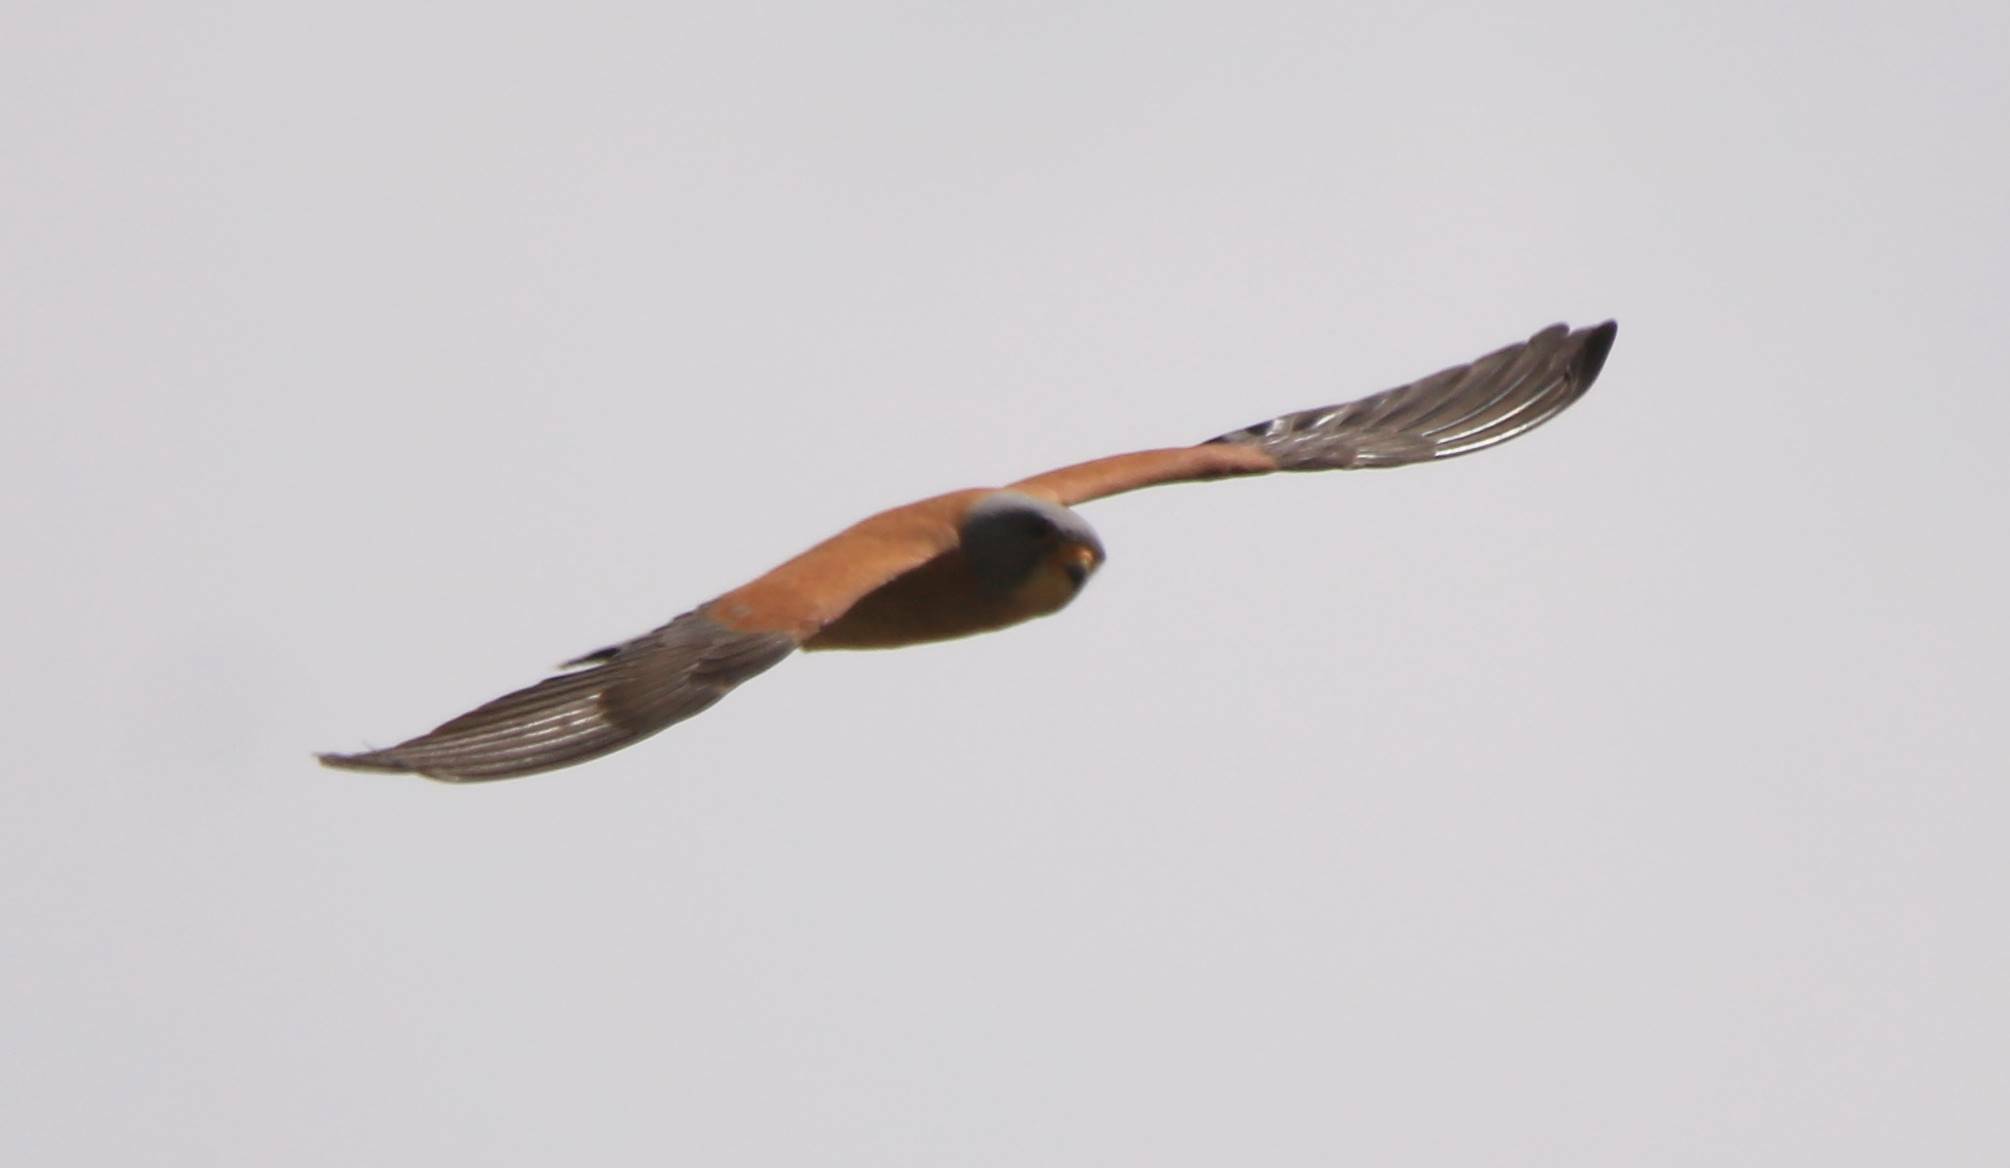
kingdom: Animalia
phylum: Chordata
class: Aves
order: Falconiformes
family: Falconidae
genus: Falco
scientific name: Falco naumanni
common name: Lesser kestrel
